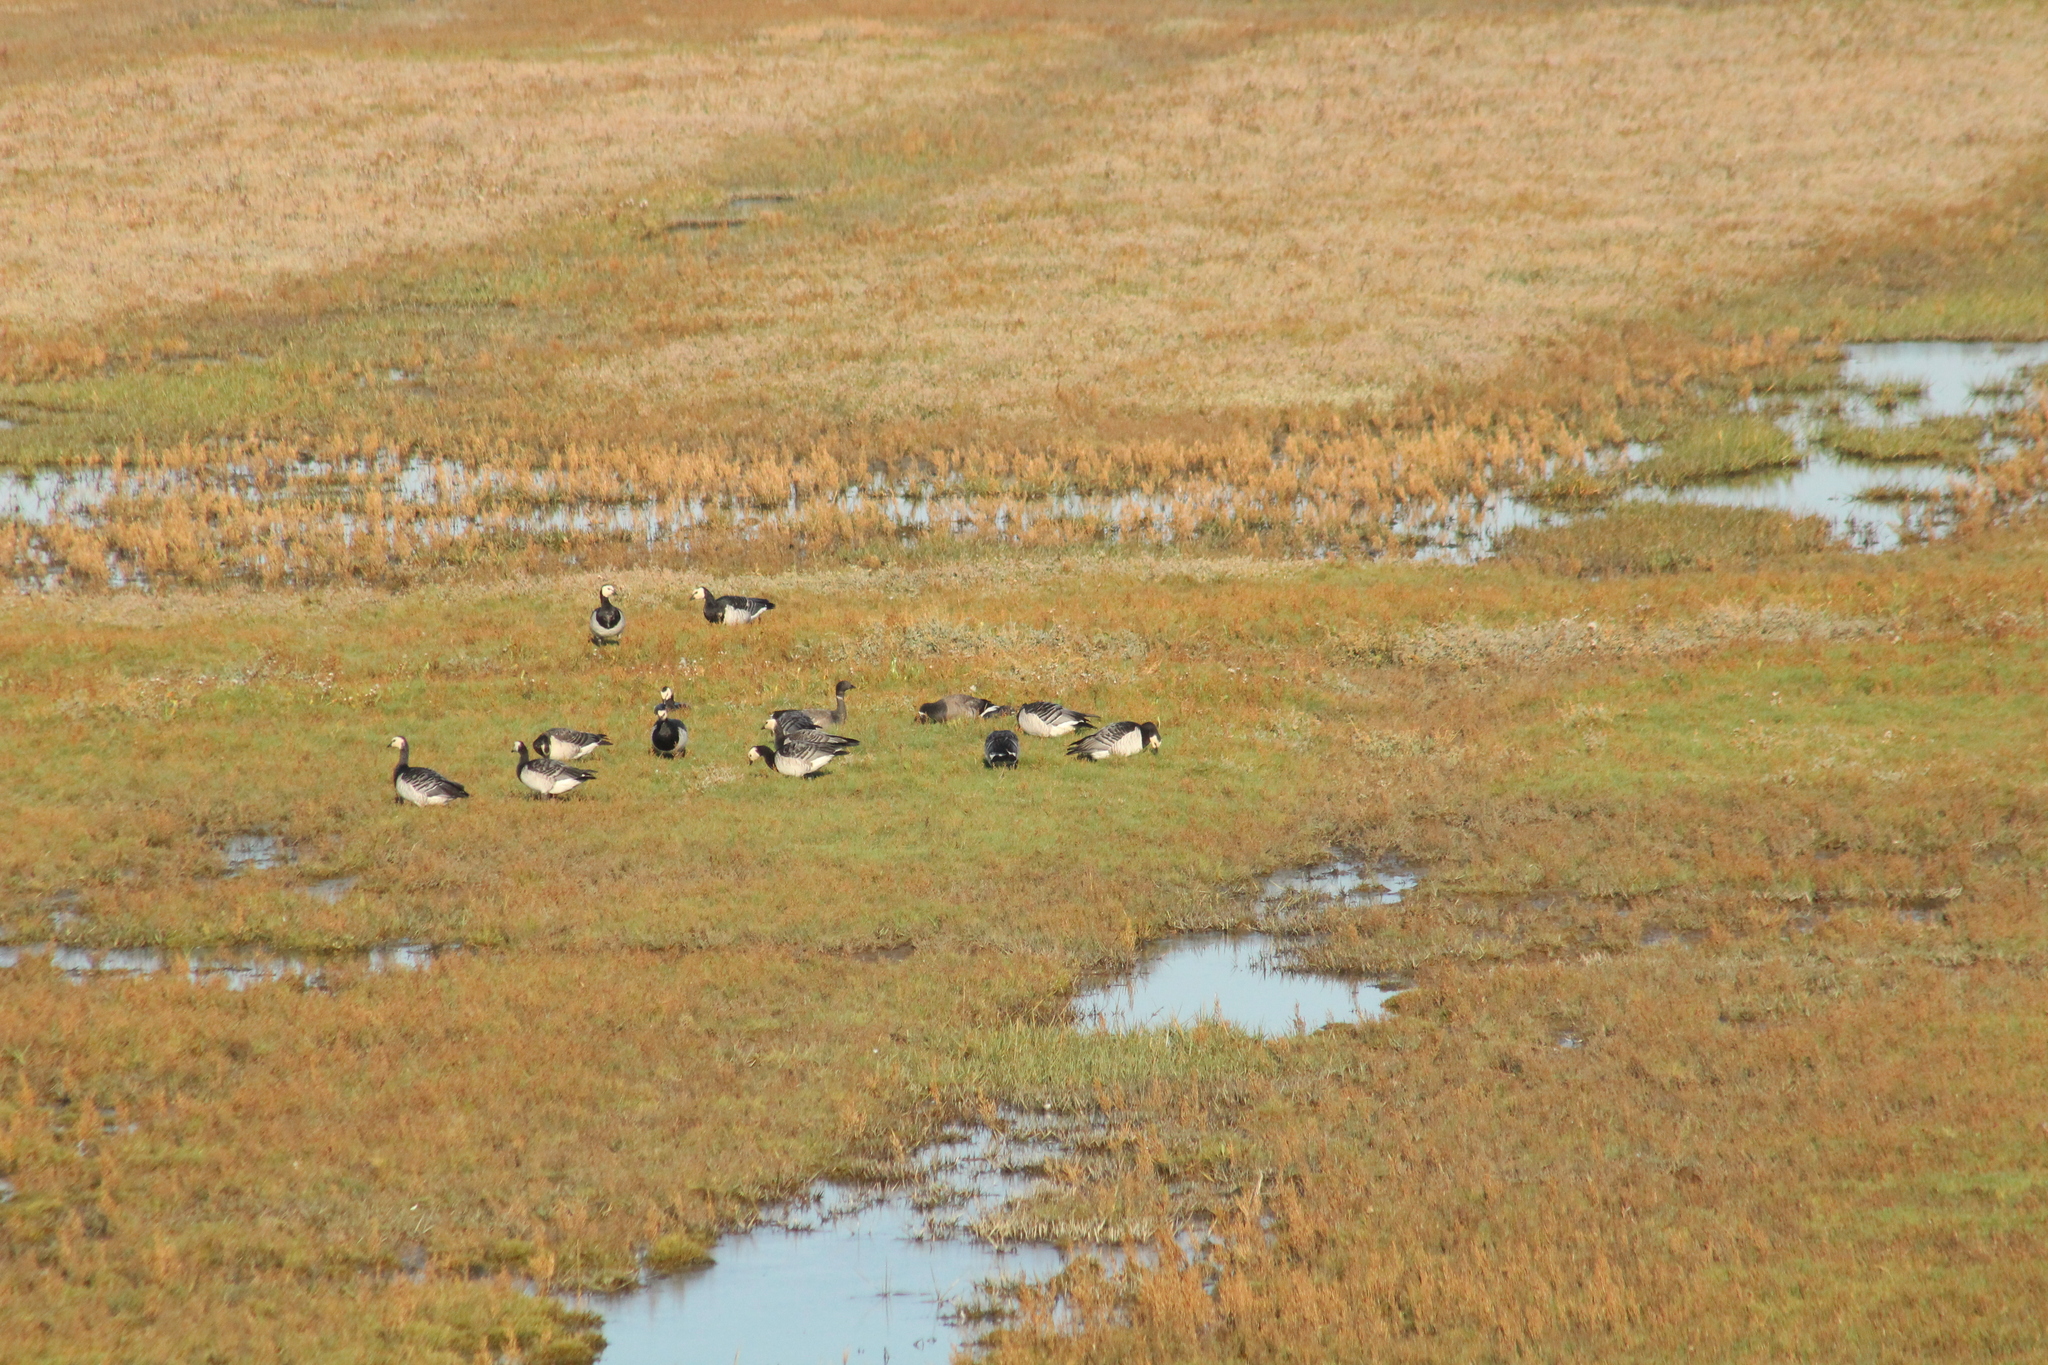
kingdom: Animalia
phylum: Chordata
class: Aves
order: Anseriformes
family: Anatidae
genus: Branta
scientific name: Branta leucopsis
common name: Barnacle goose
